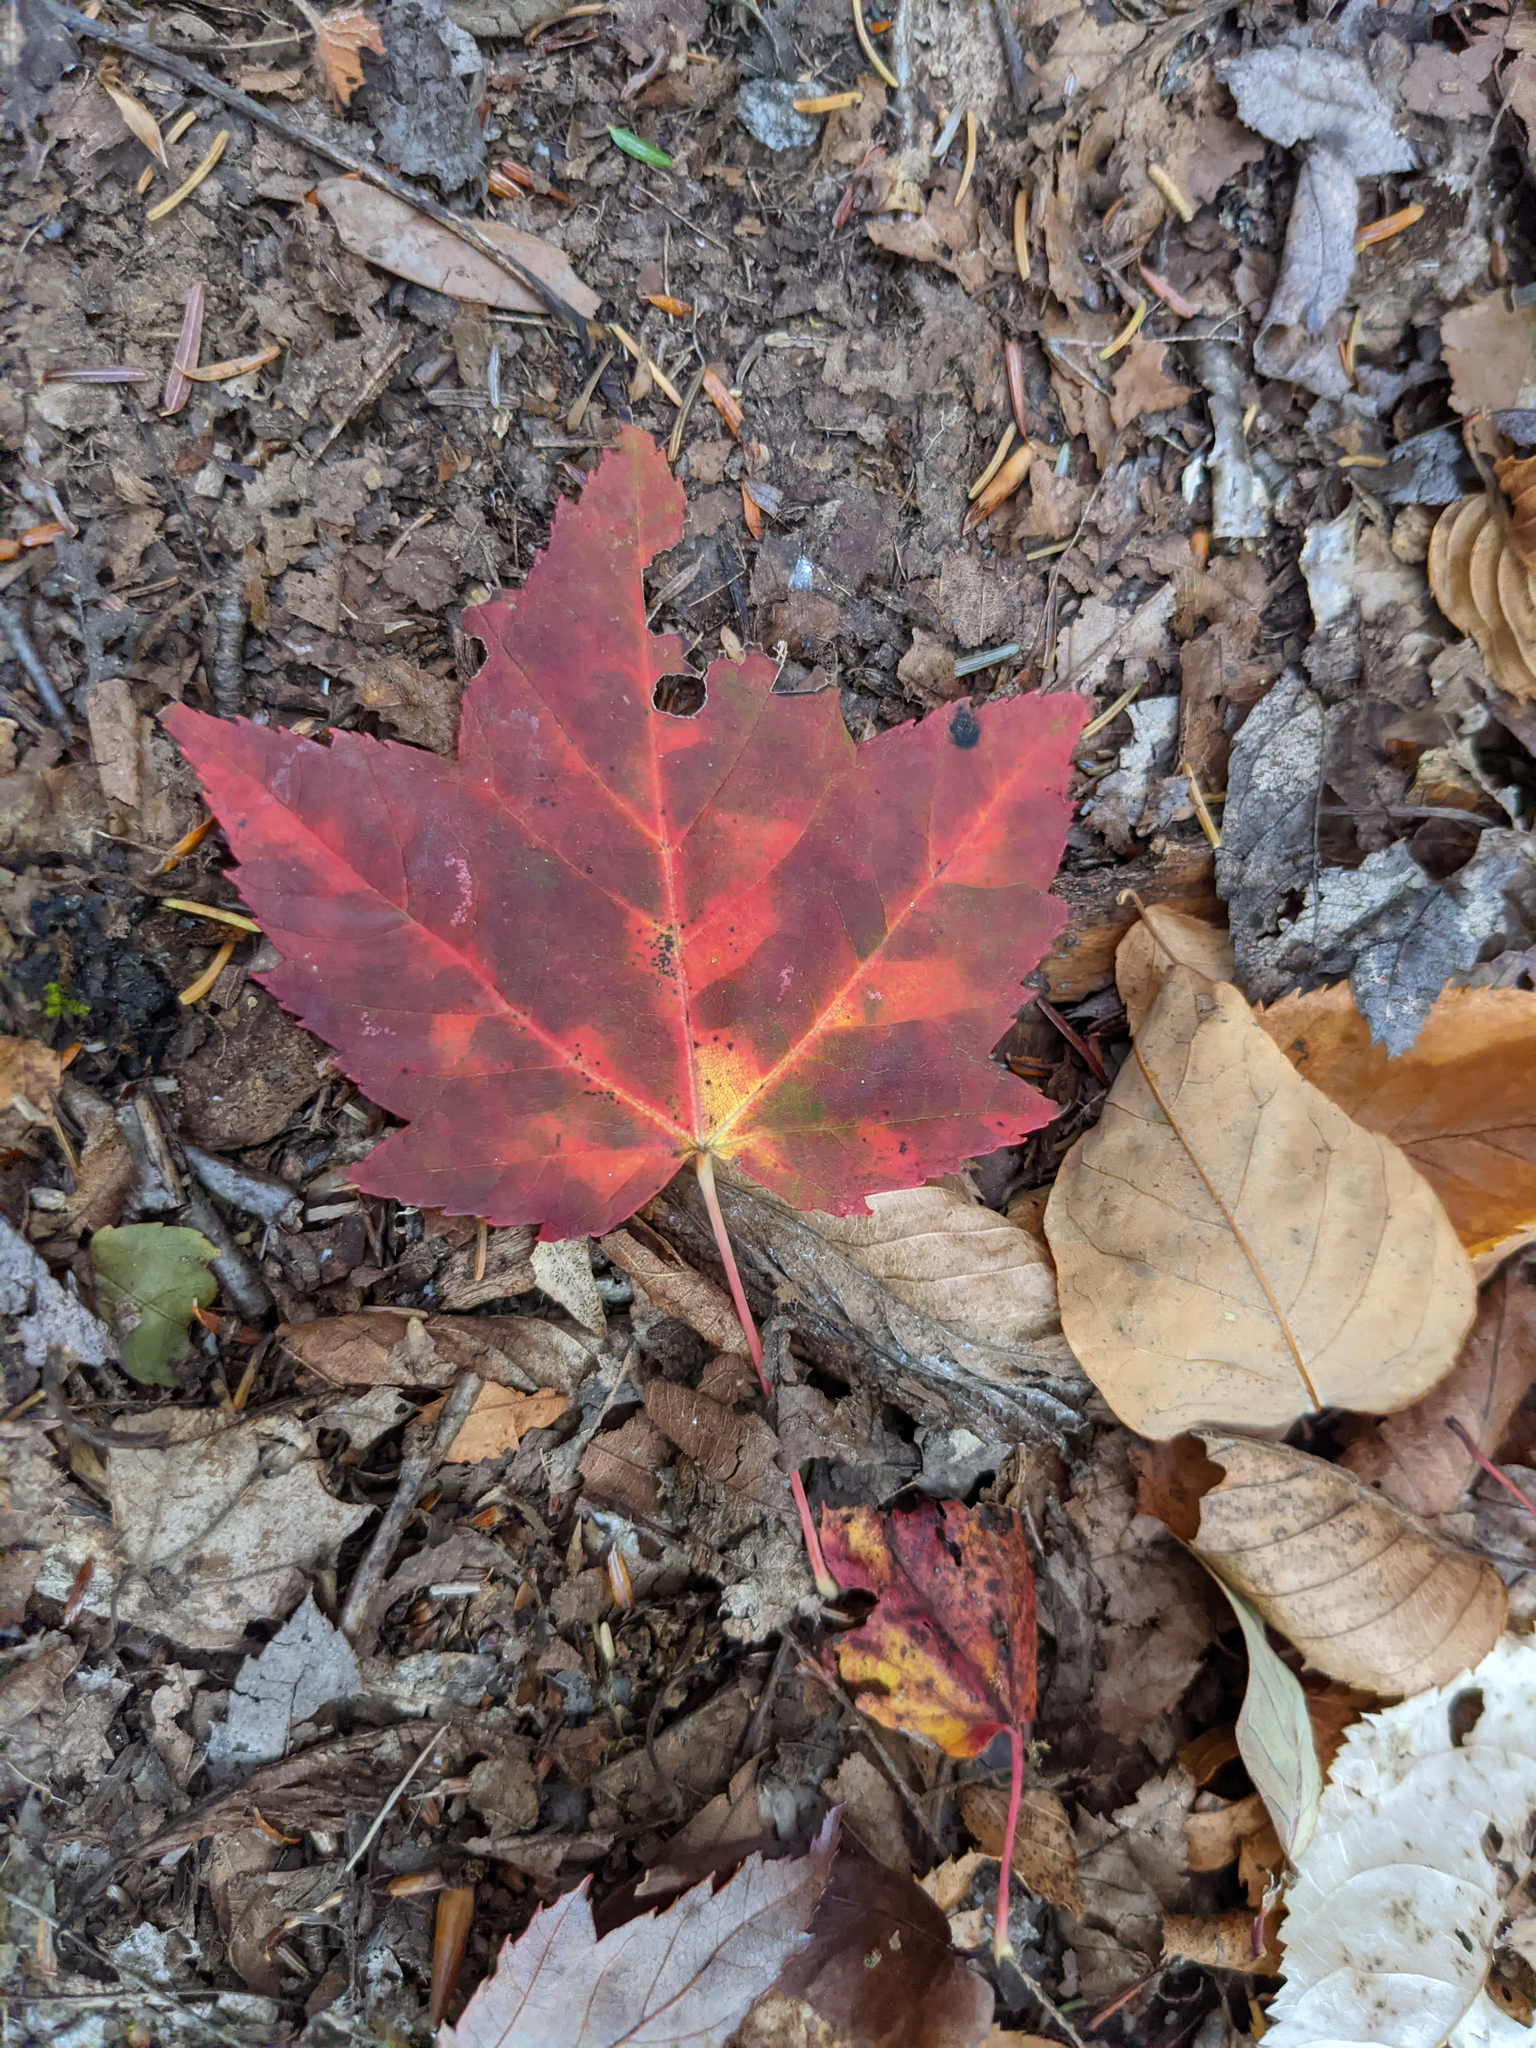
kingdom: Plantae
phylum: Tracheophyta
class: Magnoliopsida
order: Sapindales
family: Sapindaceae
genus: Acer
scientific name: Acer rubrum
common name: Red maple
